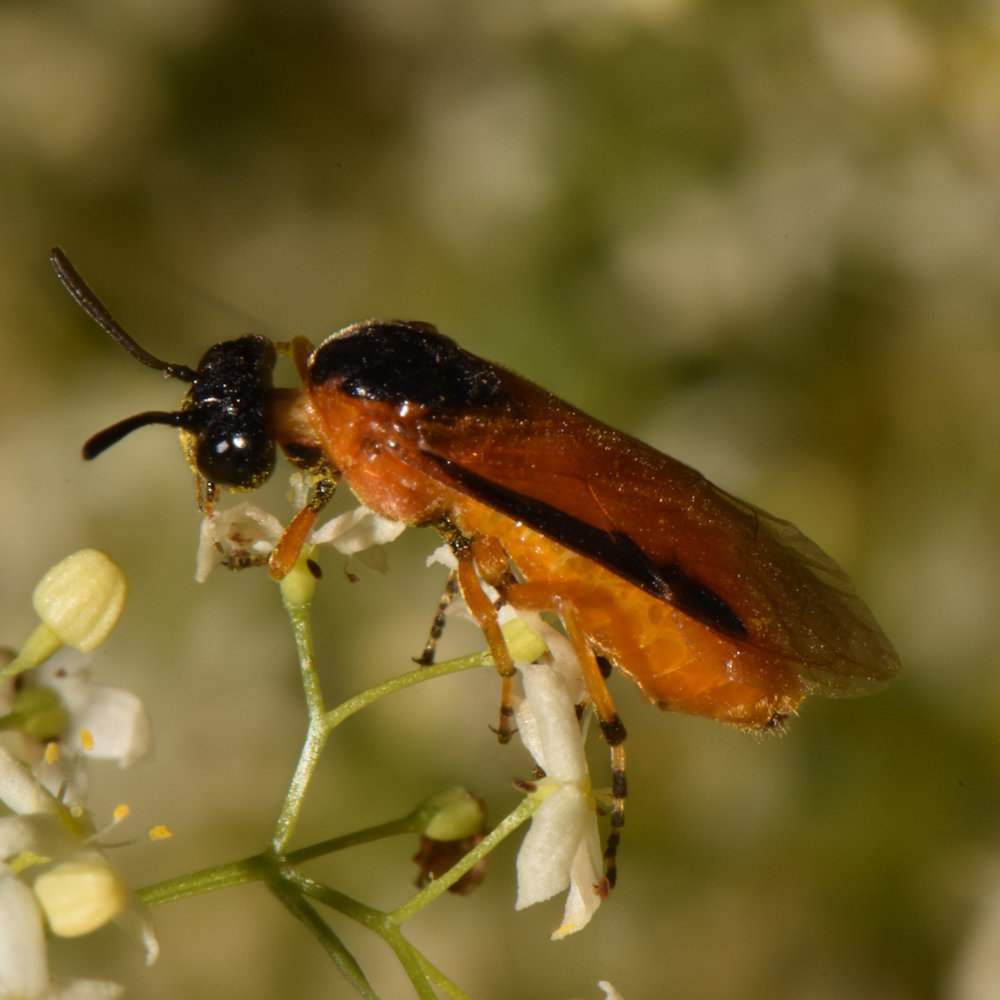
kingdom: Animalia
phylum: Arthropoda
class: Insecta
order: Hymenoptera
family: Argidae
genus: Arge
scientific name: Arge ochropus
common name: Argid sawfly
